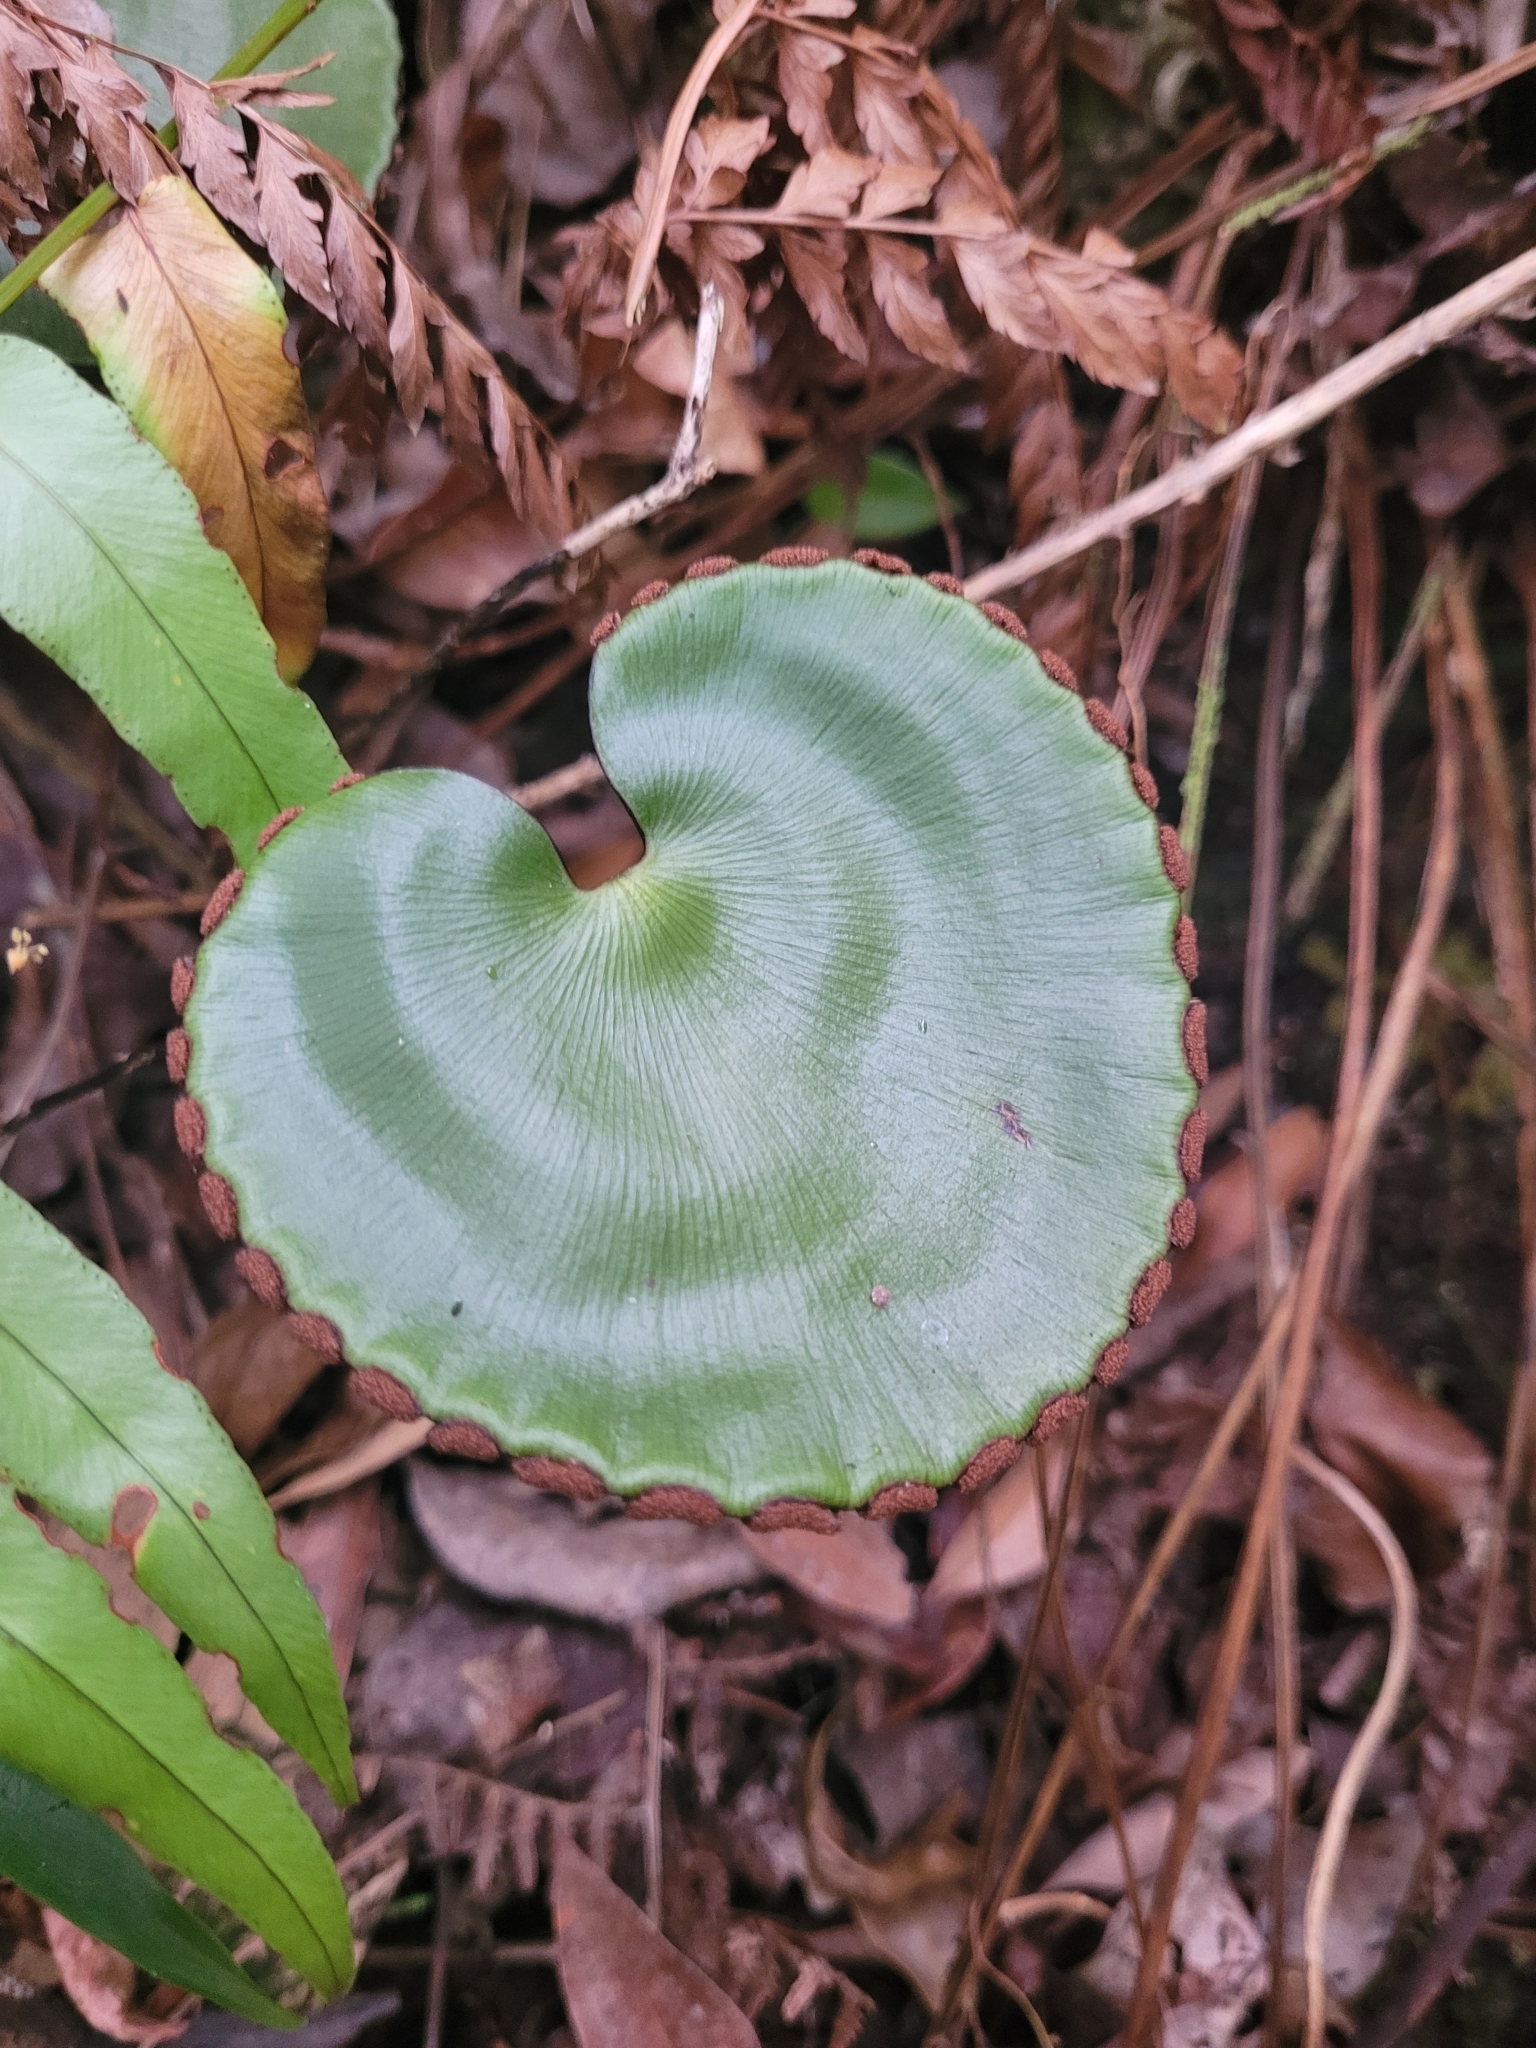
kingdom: Plantae
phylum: Tracheophyta
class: Polypodiopsida
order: Polypodiales
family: Pteridaceae
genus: Adiantum
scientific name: Adiantum reniforme
